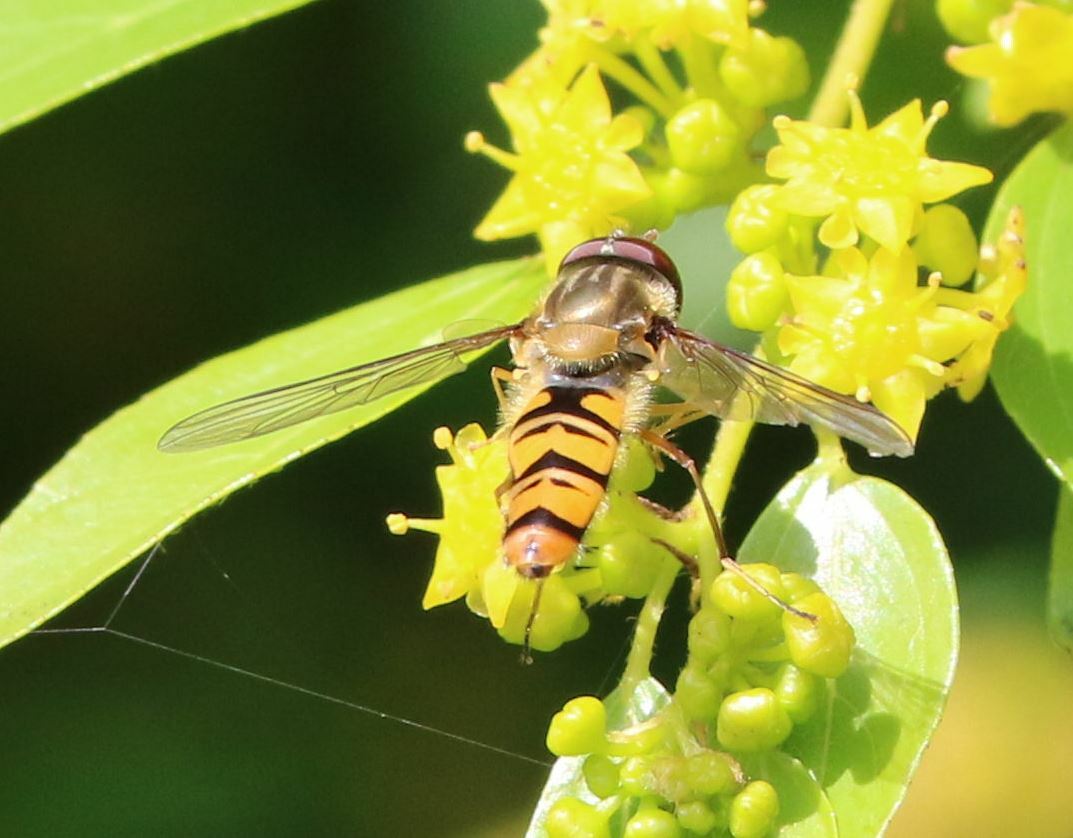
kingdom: Animalia
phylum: Arthropoda
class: Insecta
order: Diptera
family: Syrphidae
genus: Episyrphus
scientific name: Episyrphus balteatus
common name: Marmalade hoverfly
